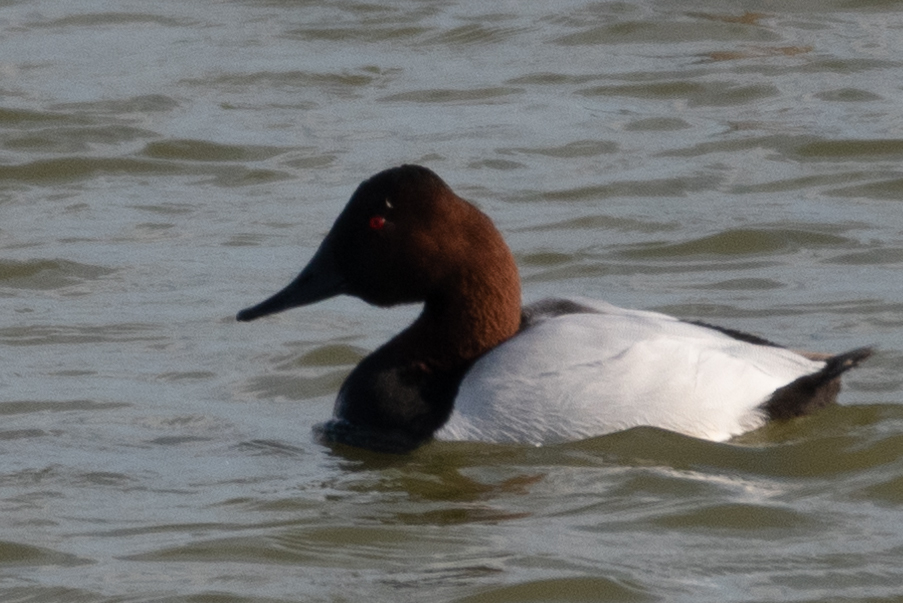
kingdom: Animalia
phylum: Chordata
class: Aves
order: Anseriformes
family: Anatidae
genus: Aythya
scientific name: Aythya valisineria
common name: Canvasback
